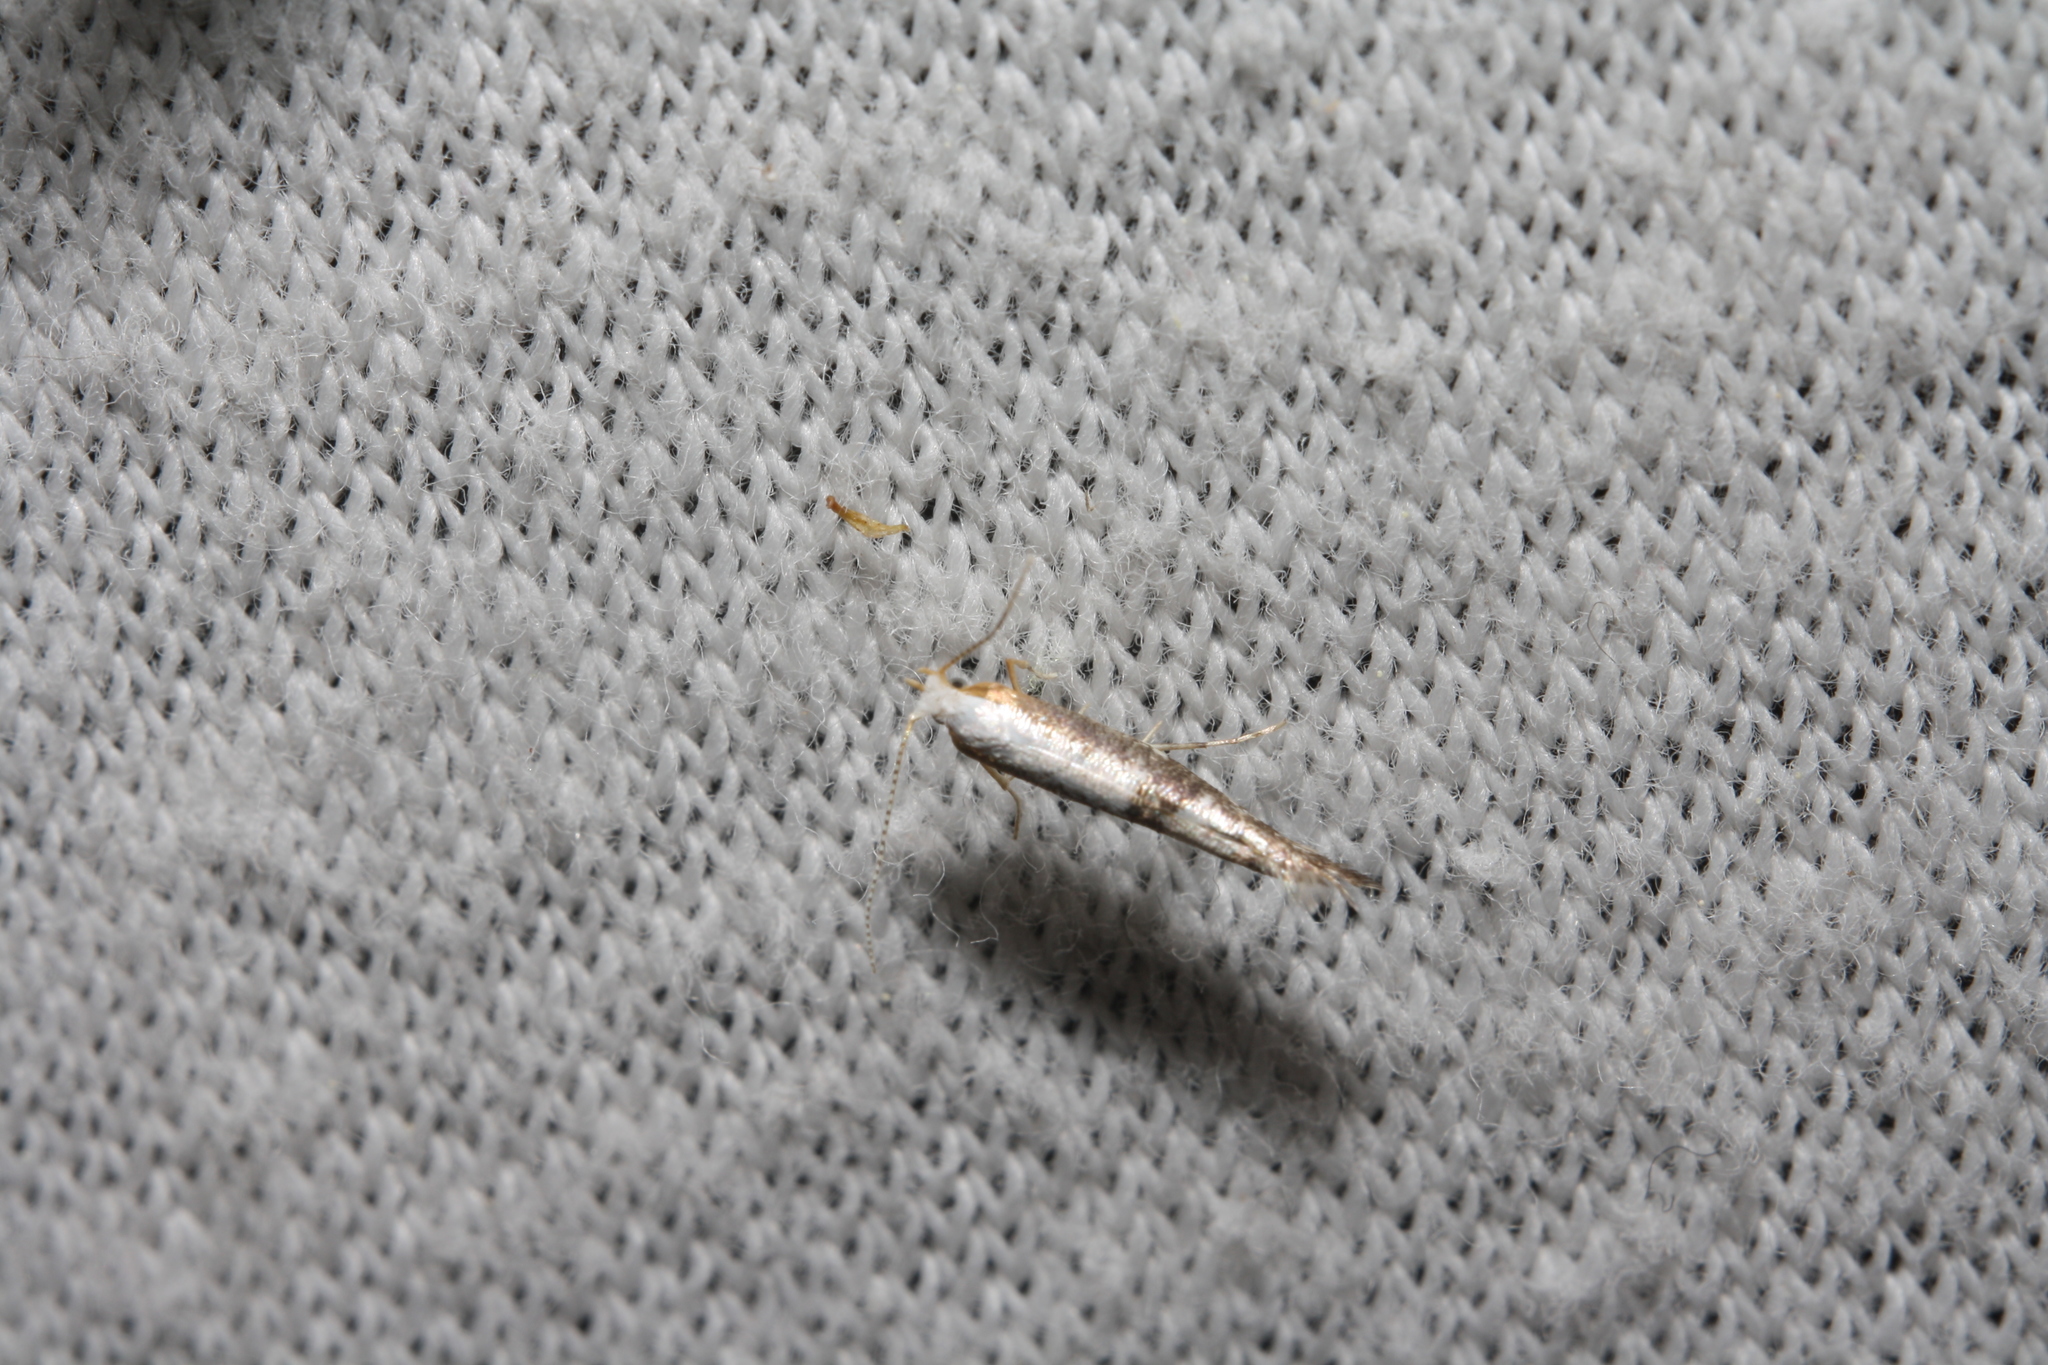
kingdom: Animalia
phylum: Arthropoda
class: Insecta
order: Lepidoptera
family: Argyresthiidae
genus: Argyresthia
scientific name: Argyresthia spinosella
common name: Blackthorn argent
